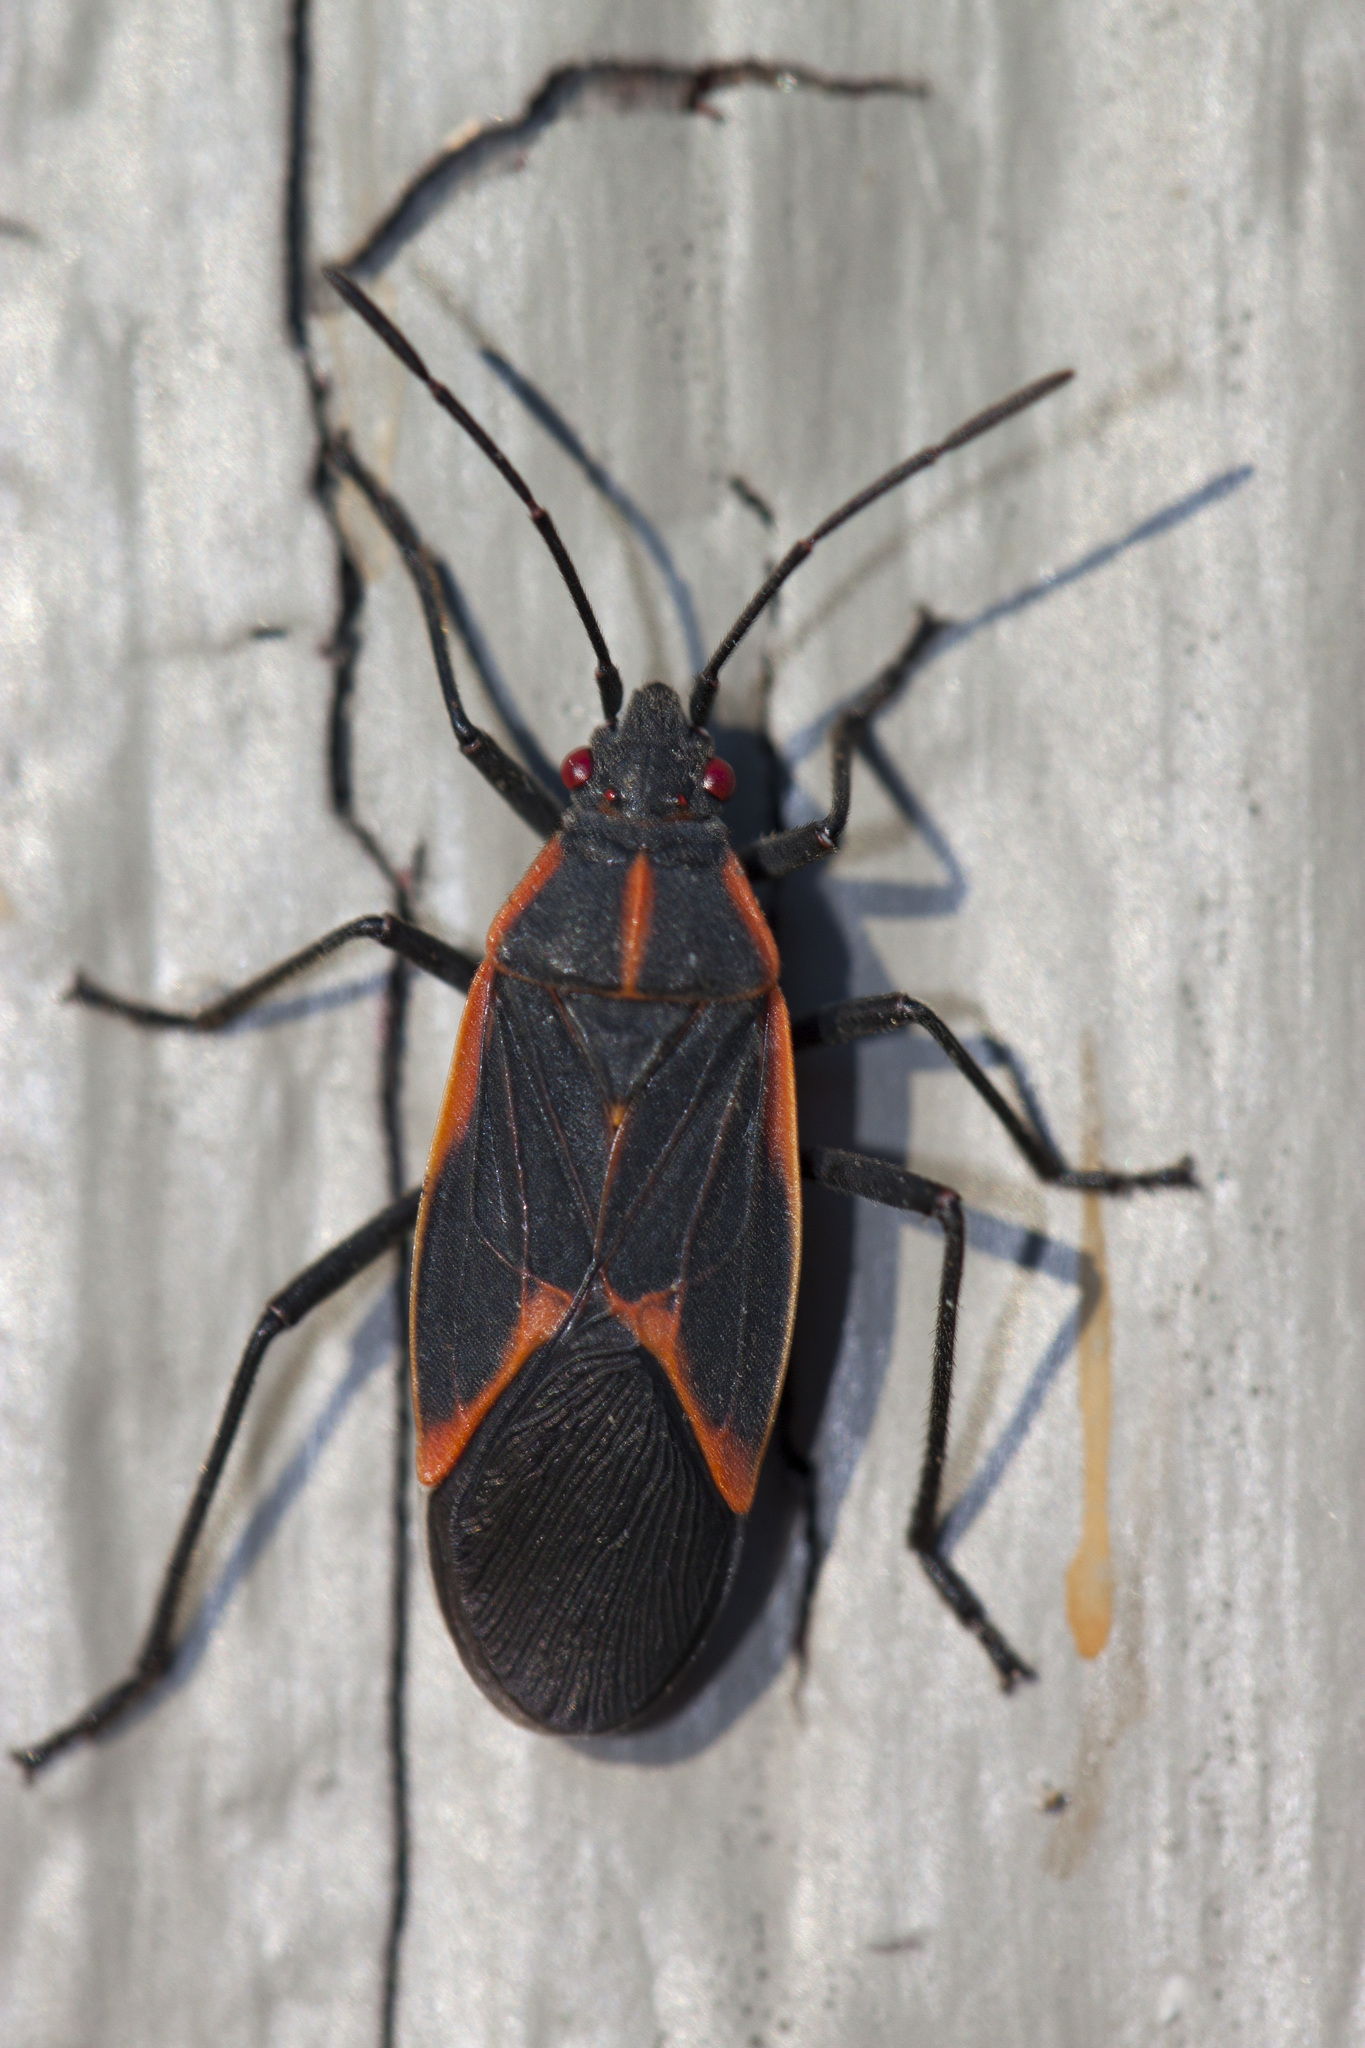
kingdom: Animalia
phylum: Arthropoda
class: Insecta
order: Hemiptera
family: Rhopalidae
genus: Boisea
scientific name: Boisea trivittata
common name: Boxelder bug
